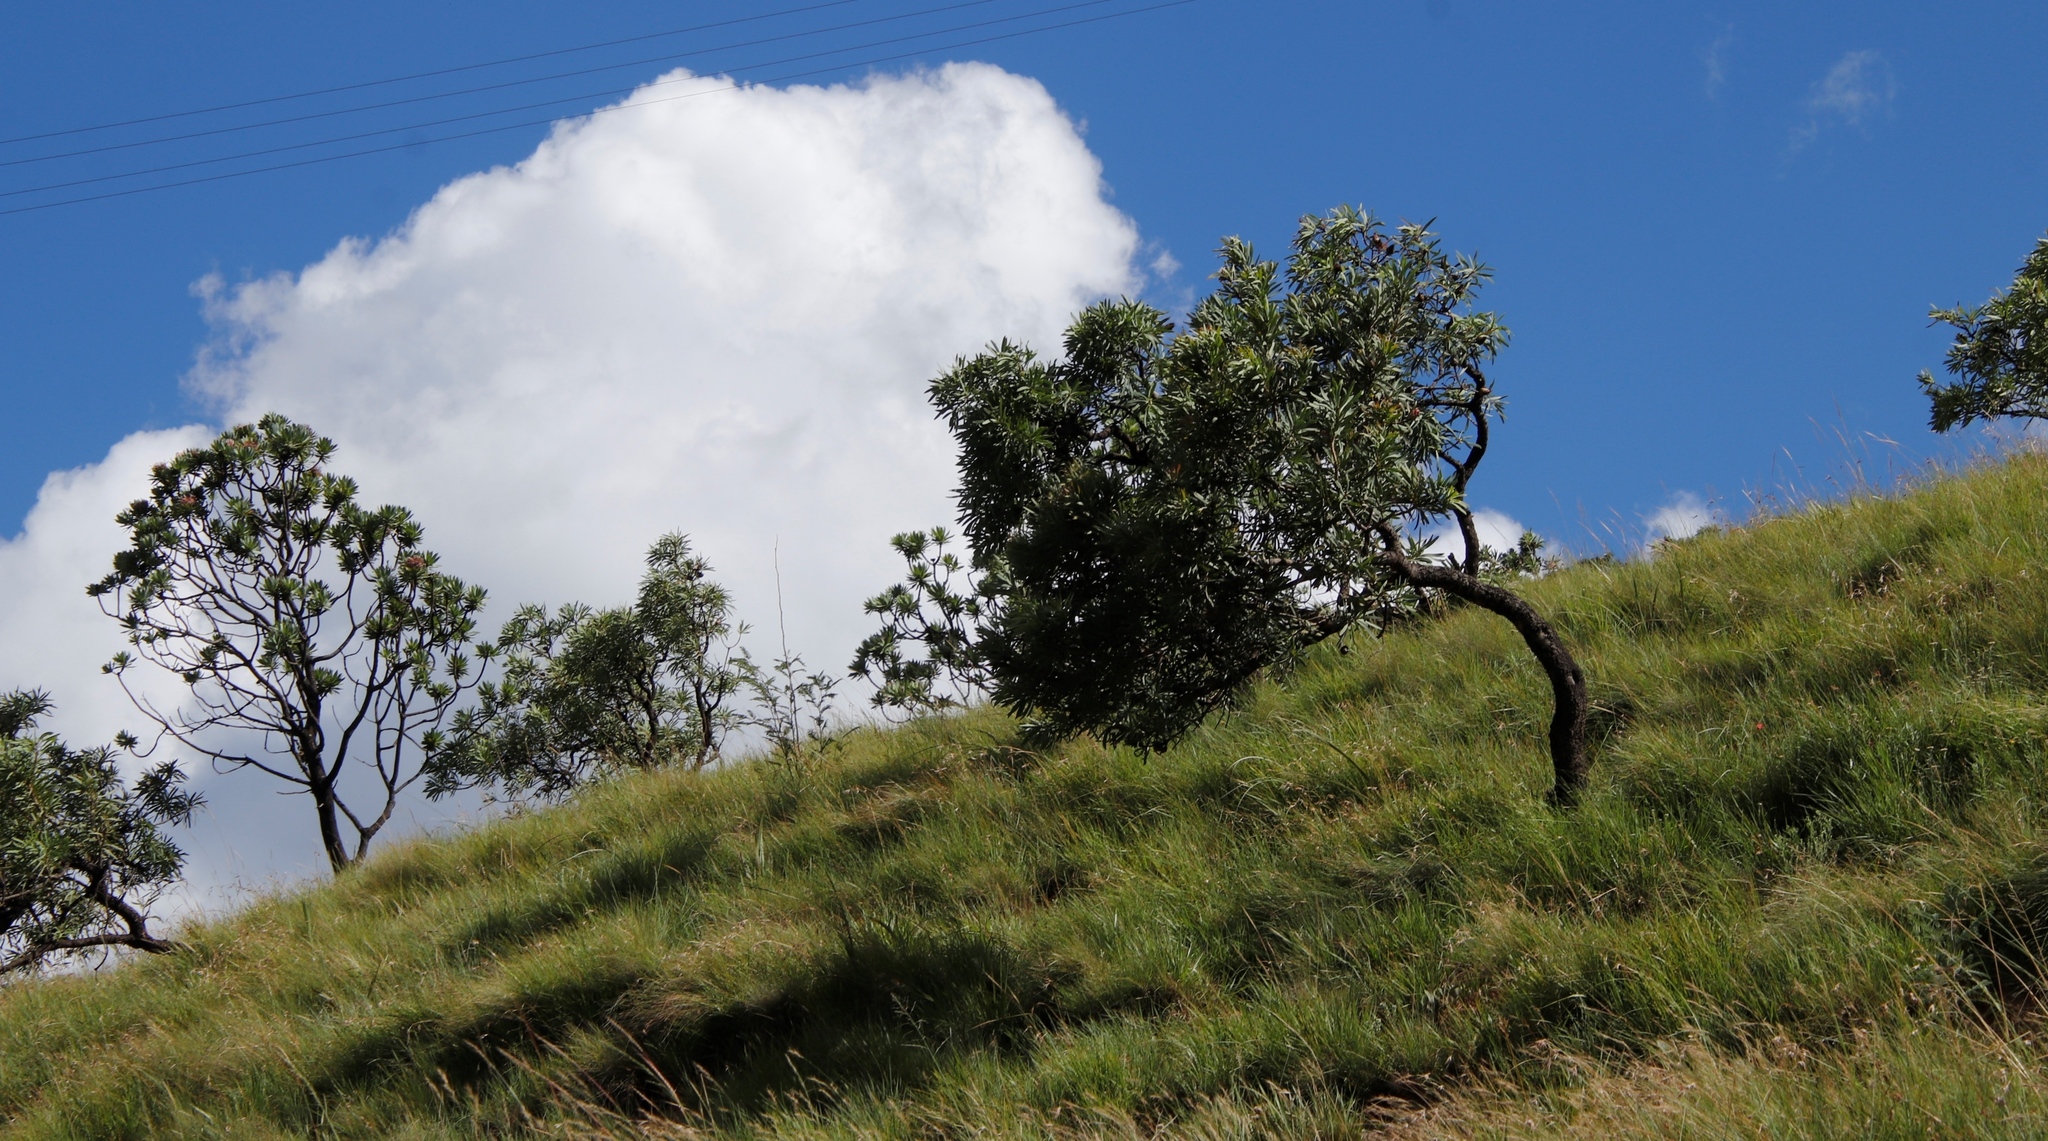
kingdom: Plantae
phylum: Tracheophyta
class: Magnoliopsida
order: Proteales
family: Proteaceae
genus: Protea
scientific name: Protea roupelliae
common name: Silver sugarbush
